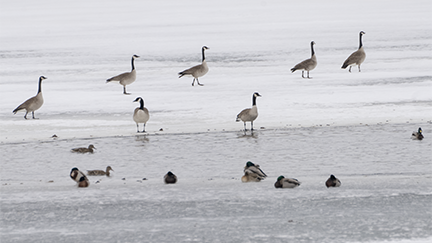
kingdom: Animalia
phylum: Chordata
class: Aves
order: Anseriformes
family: Anatidae
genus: Branta
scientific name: Branta canadensis
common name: Canada goose
